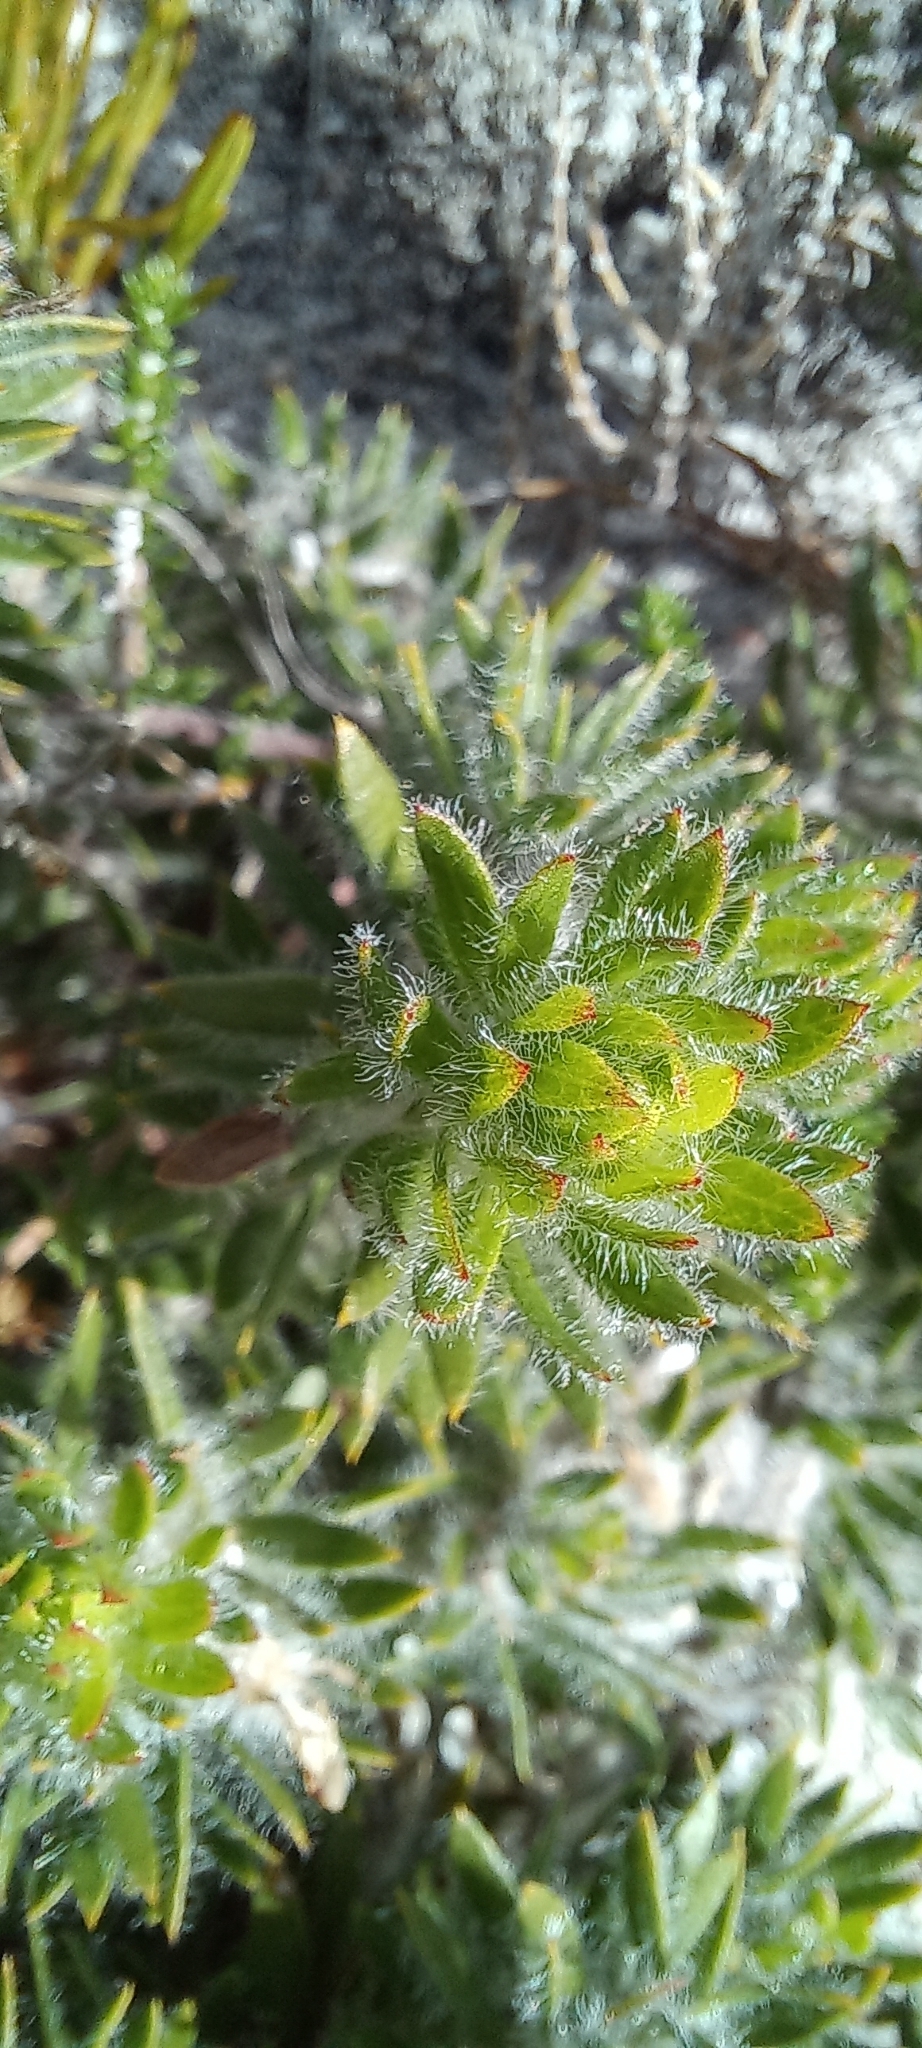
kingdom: Plantae
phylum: Tracheophyta
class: Magnoliopsida
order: Fabales
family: Fabaceae
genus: Aspalathus
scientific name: Aspalathus aspalathoides
